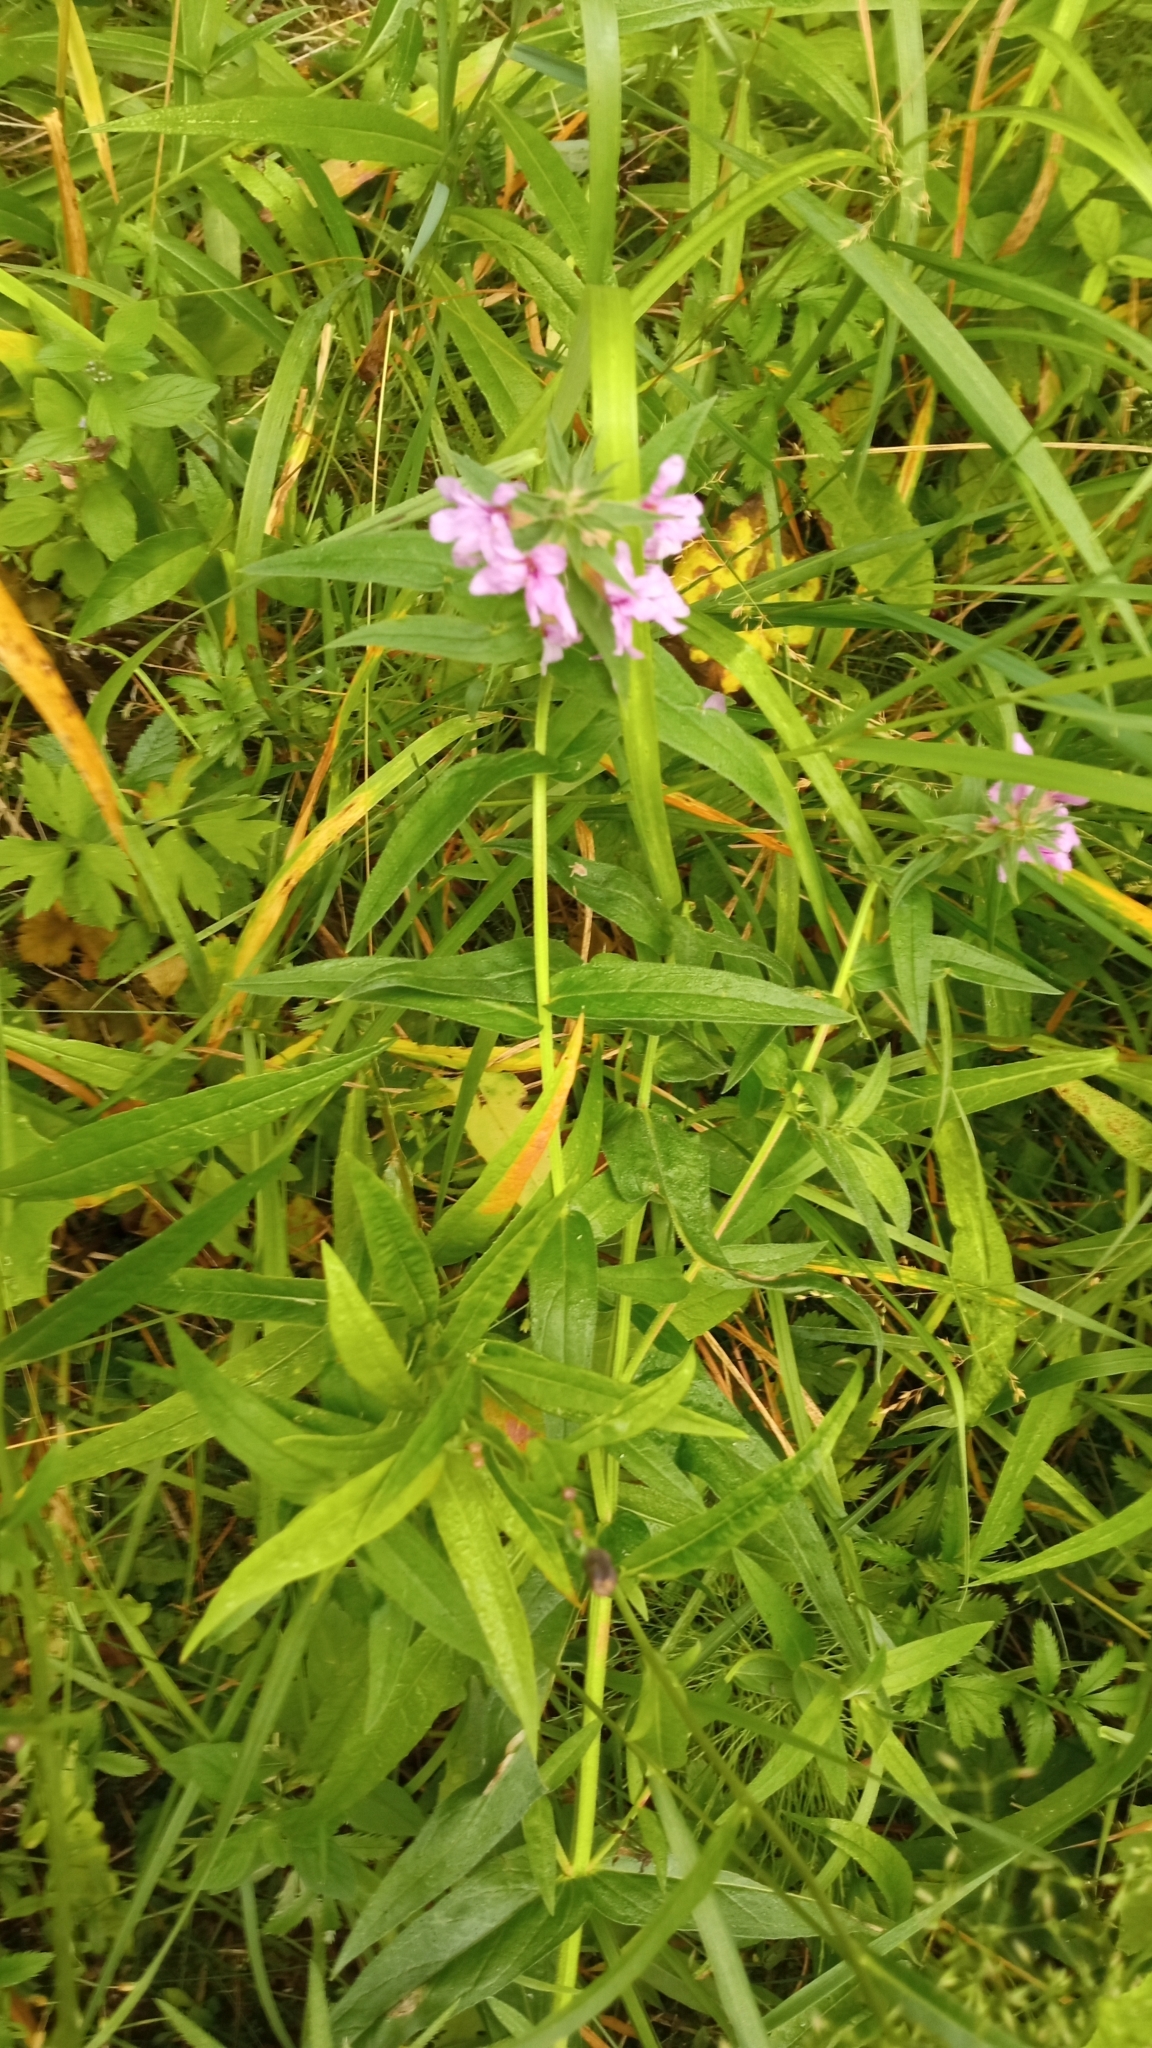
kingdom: Plantae
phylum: Tracheophyta
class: Magnoliopsida
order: Myrtales
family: Lythraceae
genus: Lythrum
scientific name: Lythrum salicaria
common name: Purple loosestrife
